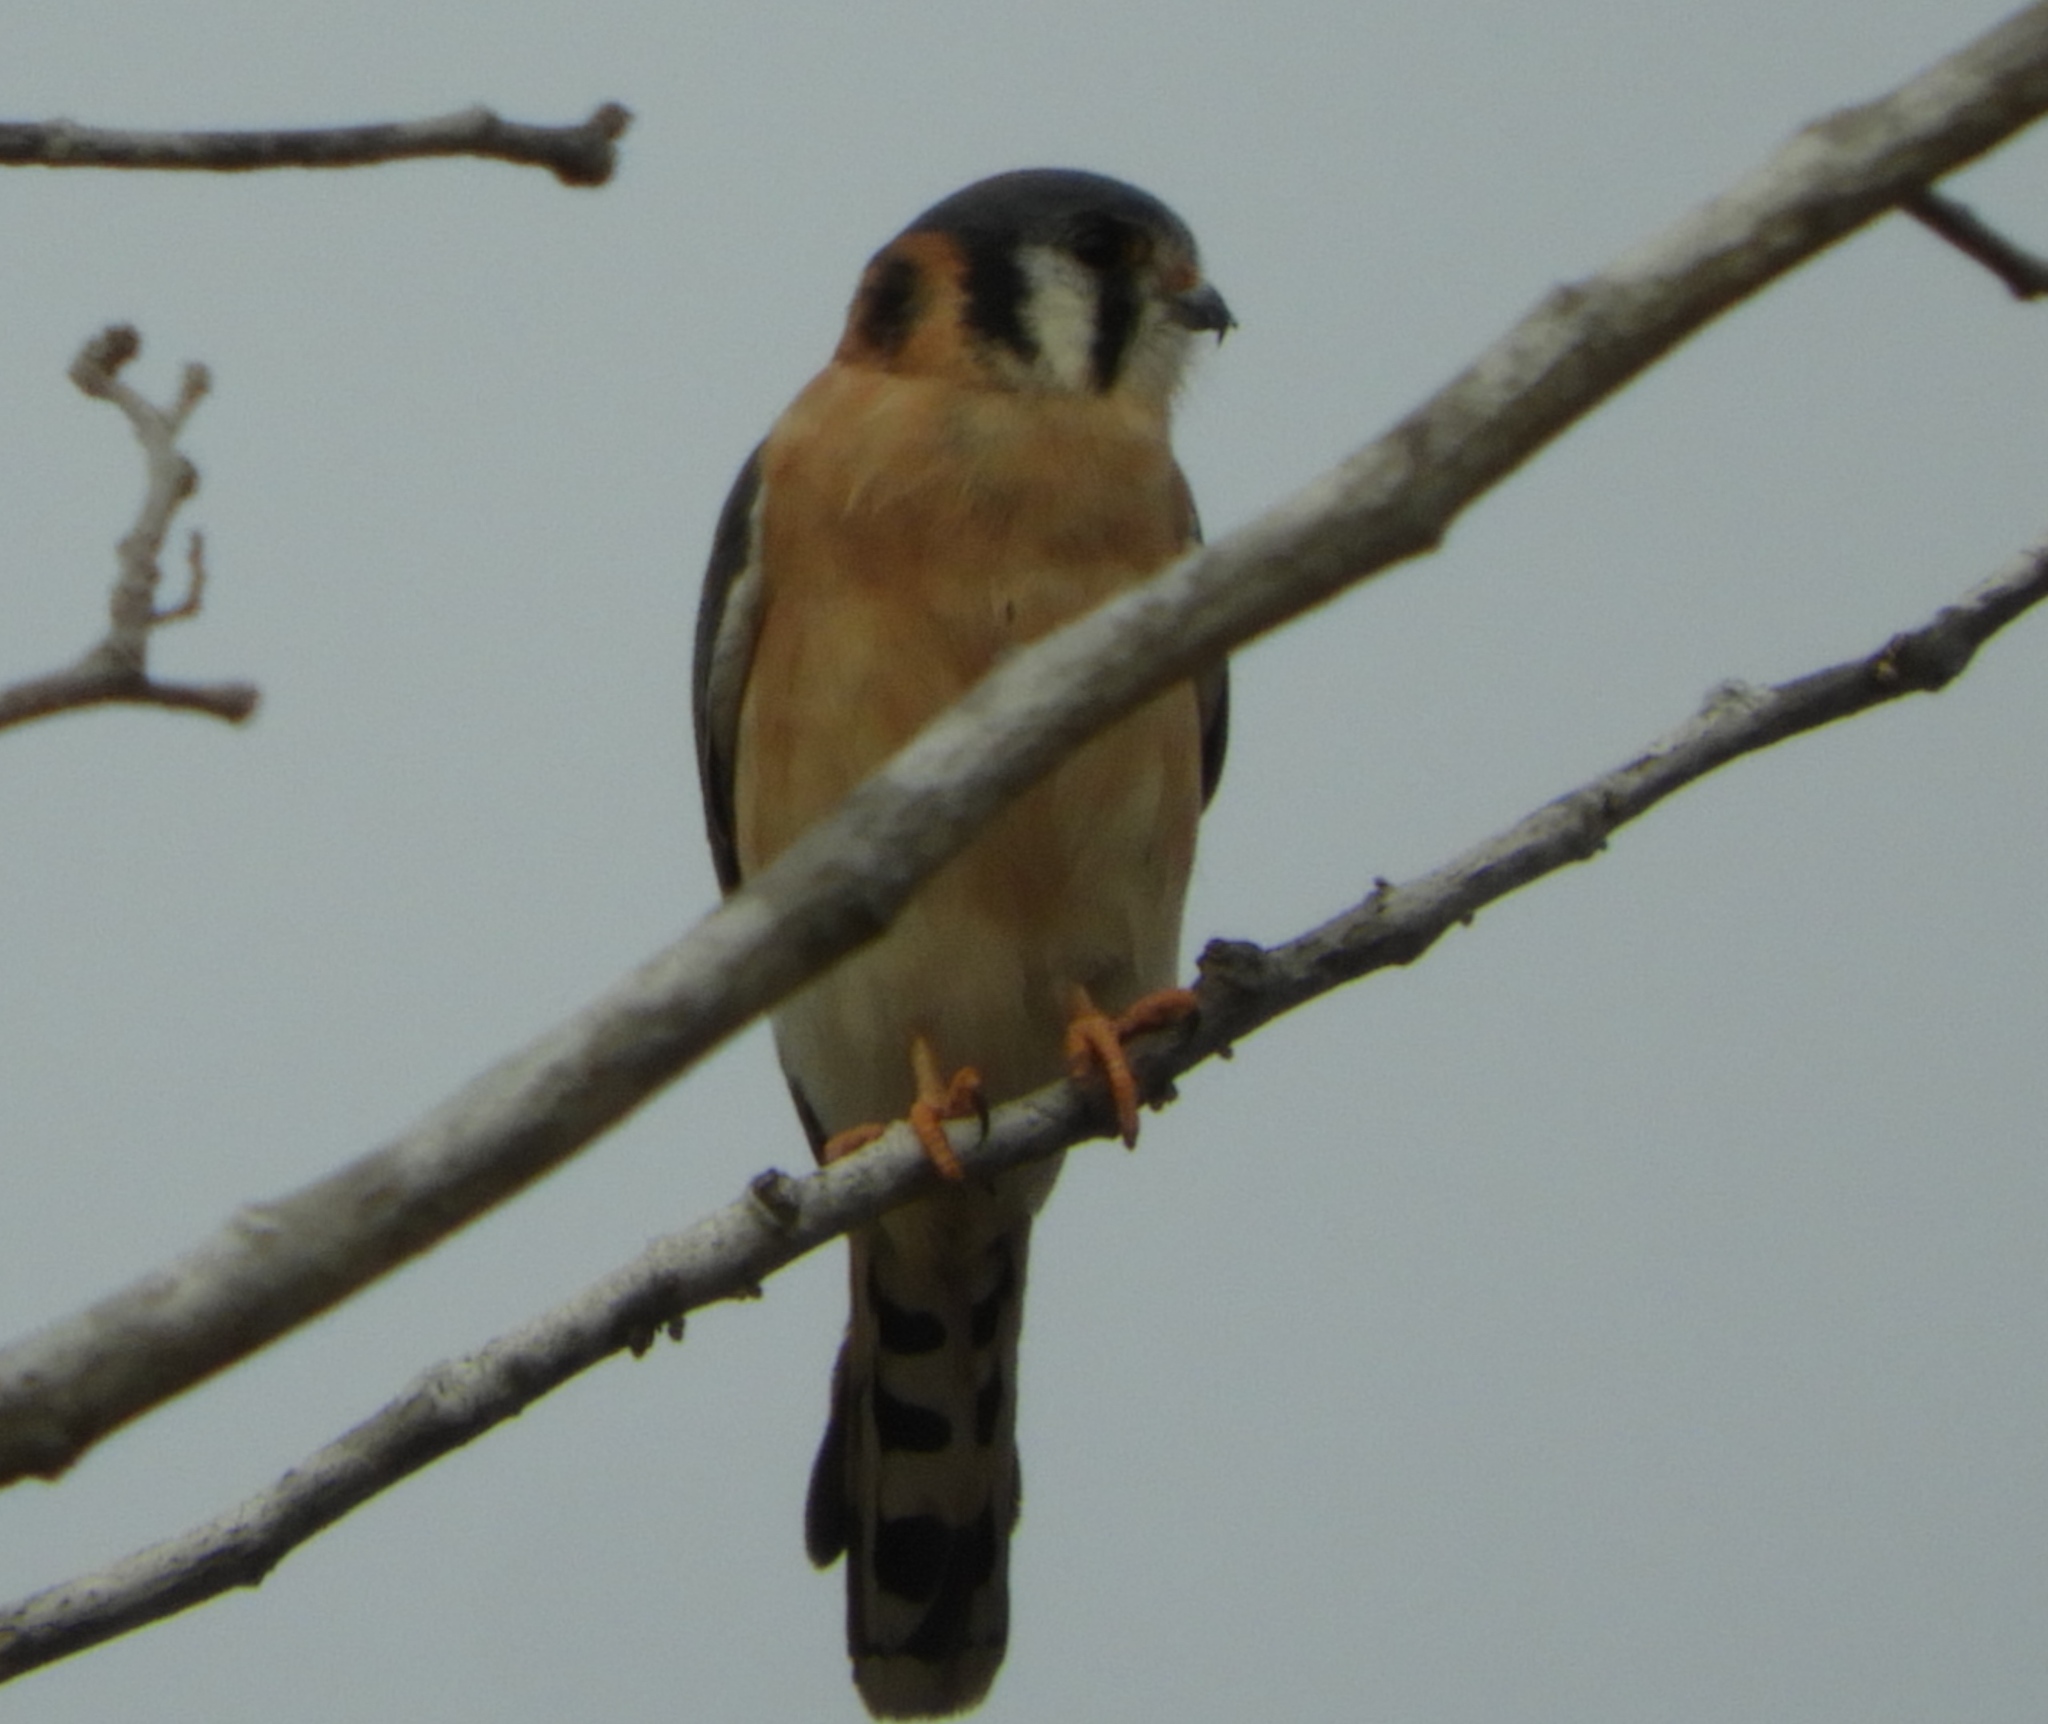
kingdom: Animalia
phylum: Chordata
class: Aves
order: Falconiformes
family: Falconidae
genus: Falco
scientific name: Falco sparverius
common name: American kestrel
